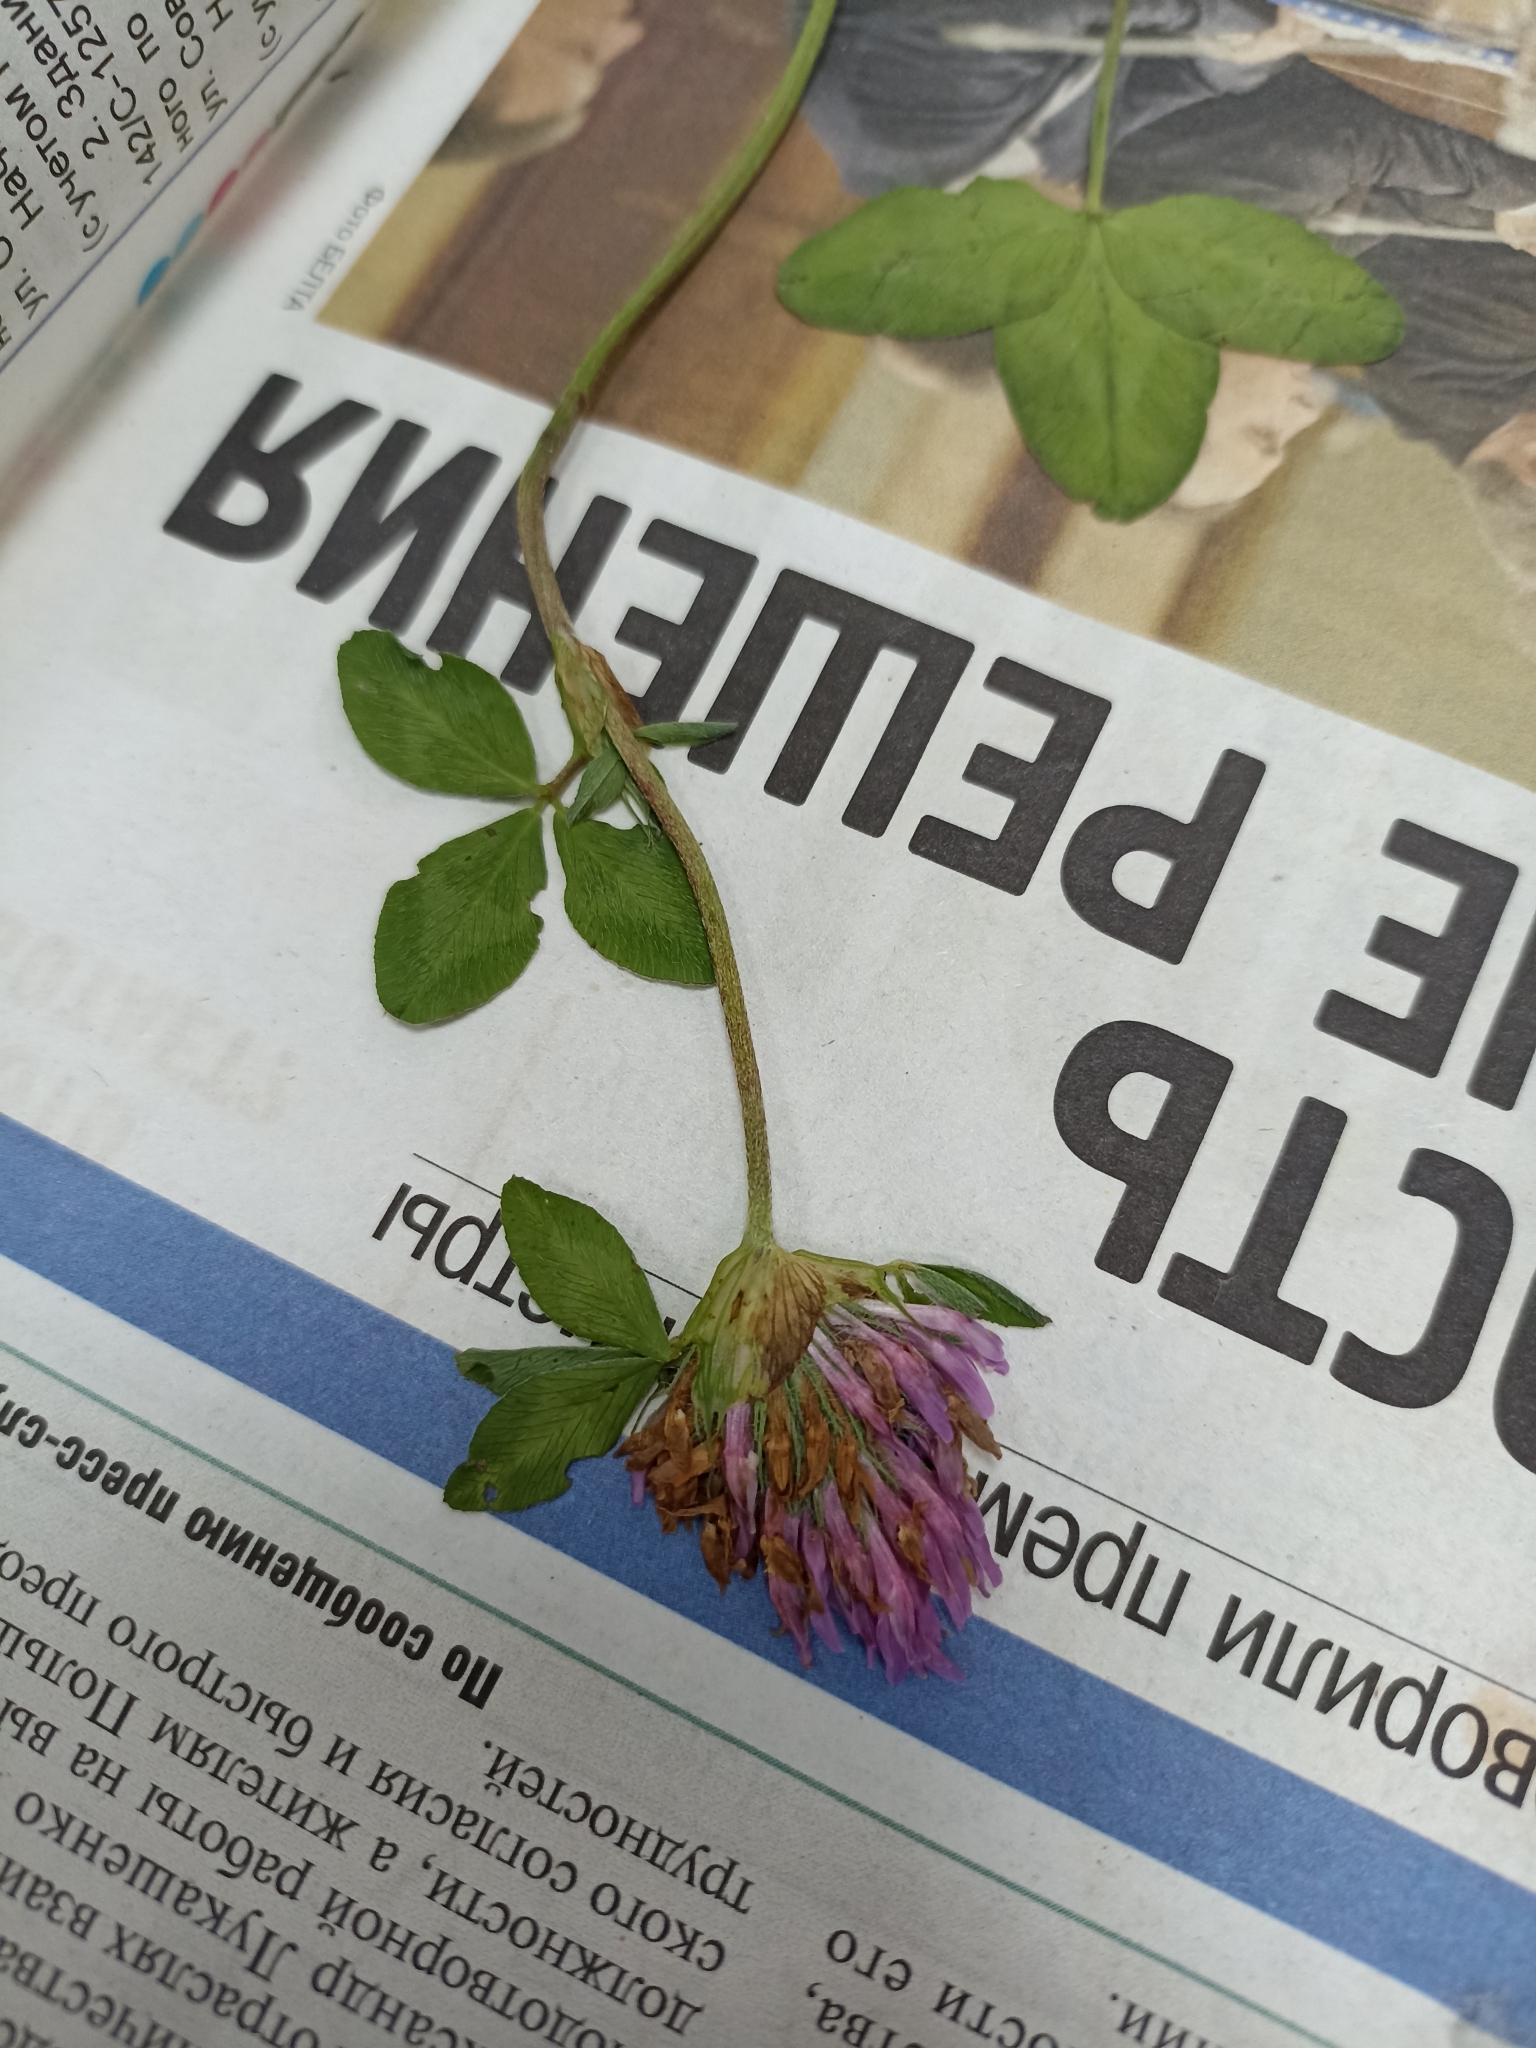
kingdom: Plantae
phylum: Tracheophyta
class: Magnoliopsida
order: Fabales
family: Fabaceae
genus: Trifolium
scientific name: Trifolium pratense
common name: Red clover
